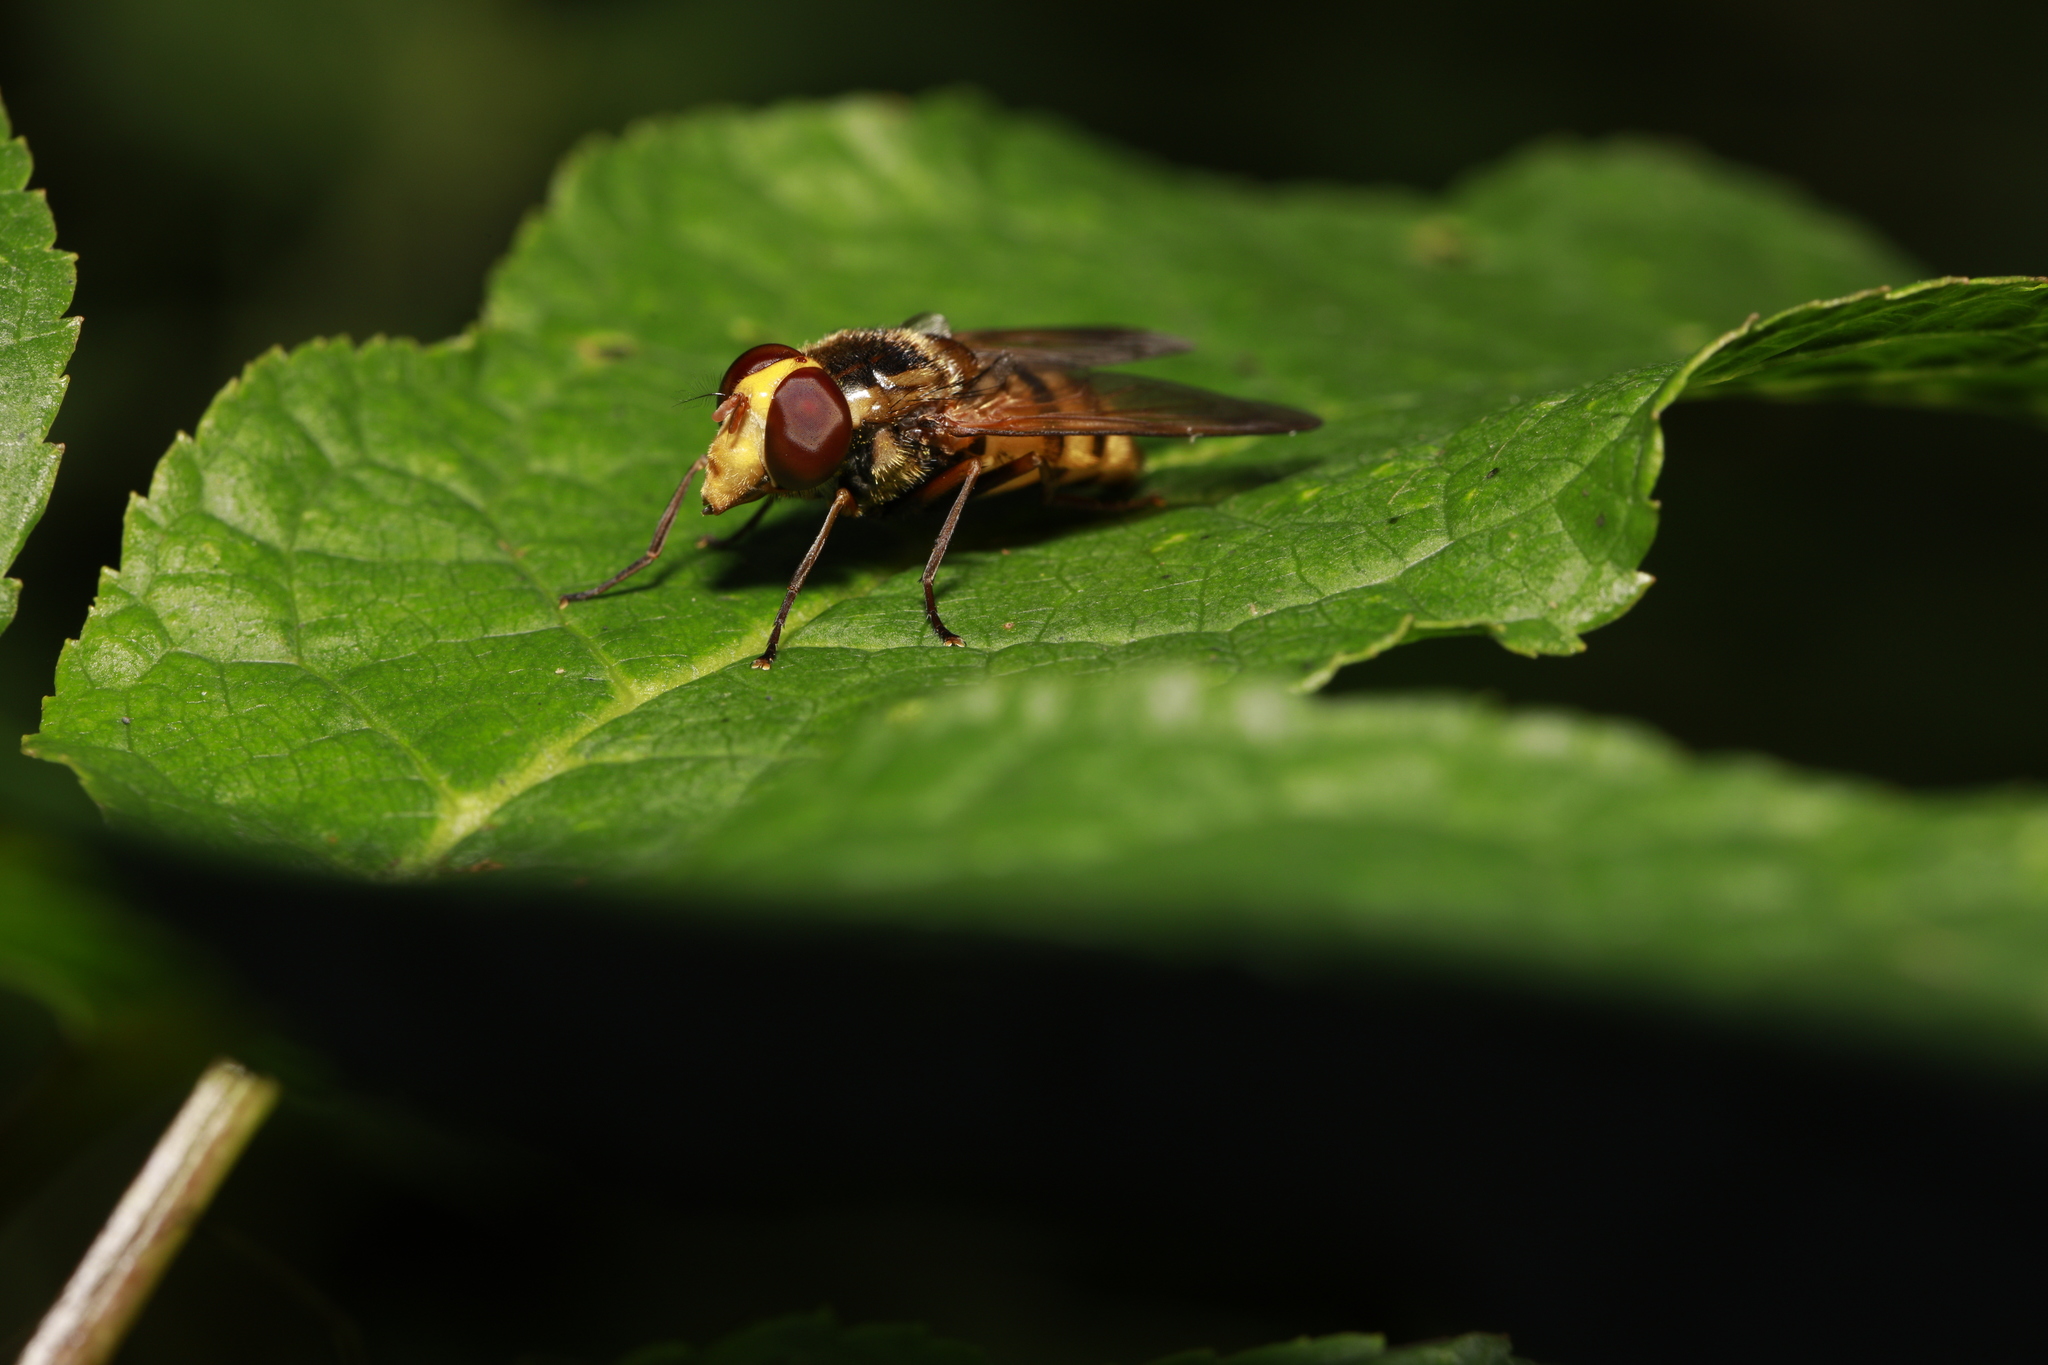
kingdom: Animalia
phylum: Arthropoda
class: Insecta
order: Diptera
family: Syrphidae
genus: Volucella
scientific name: Volucella inanis
